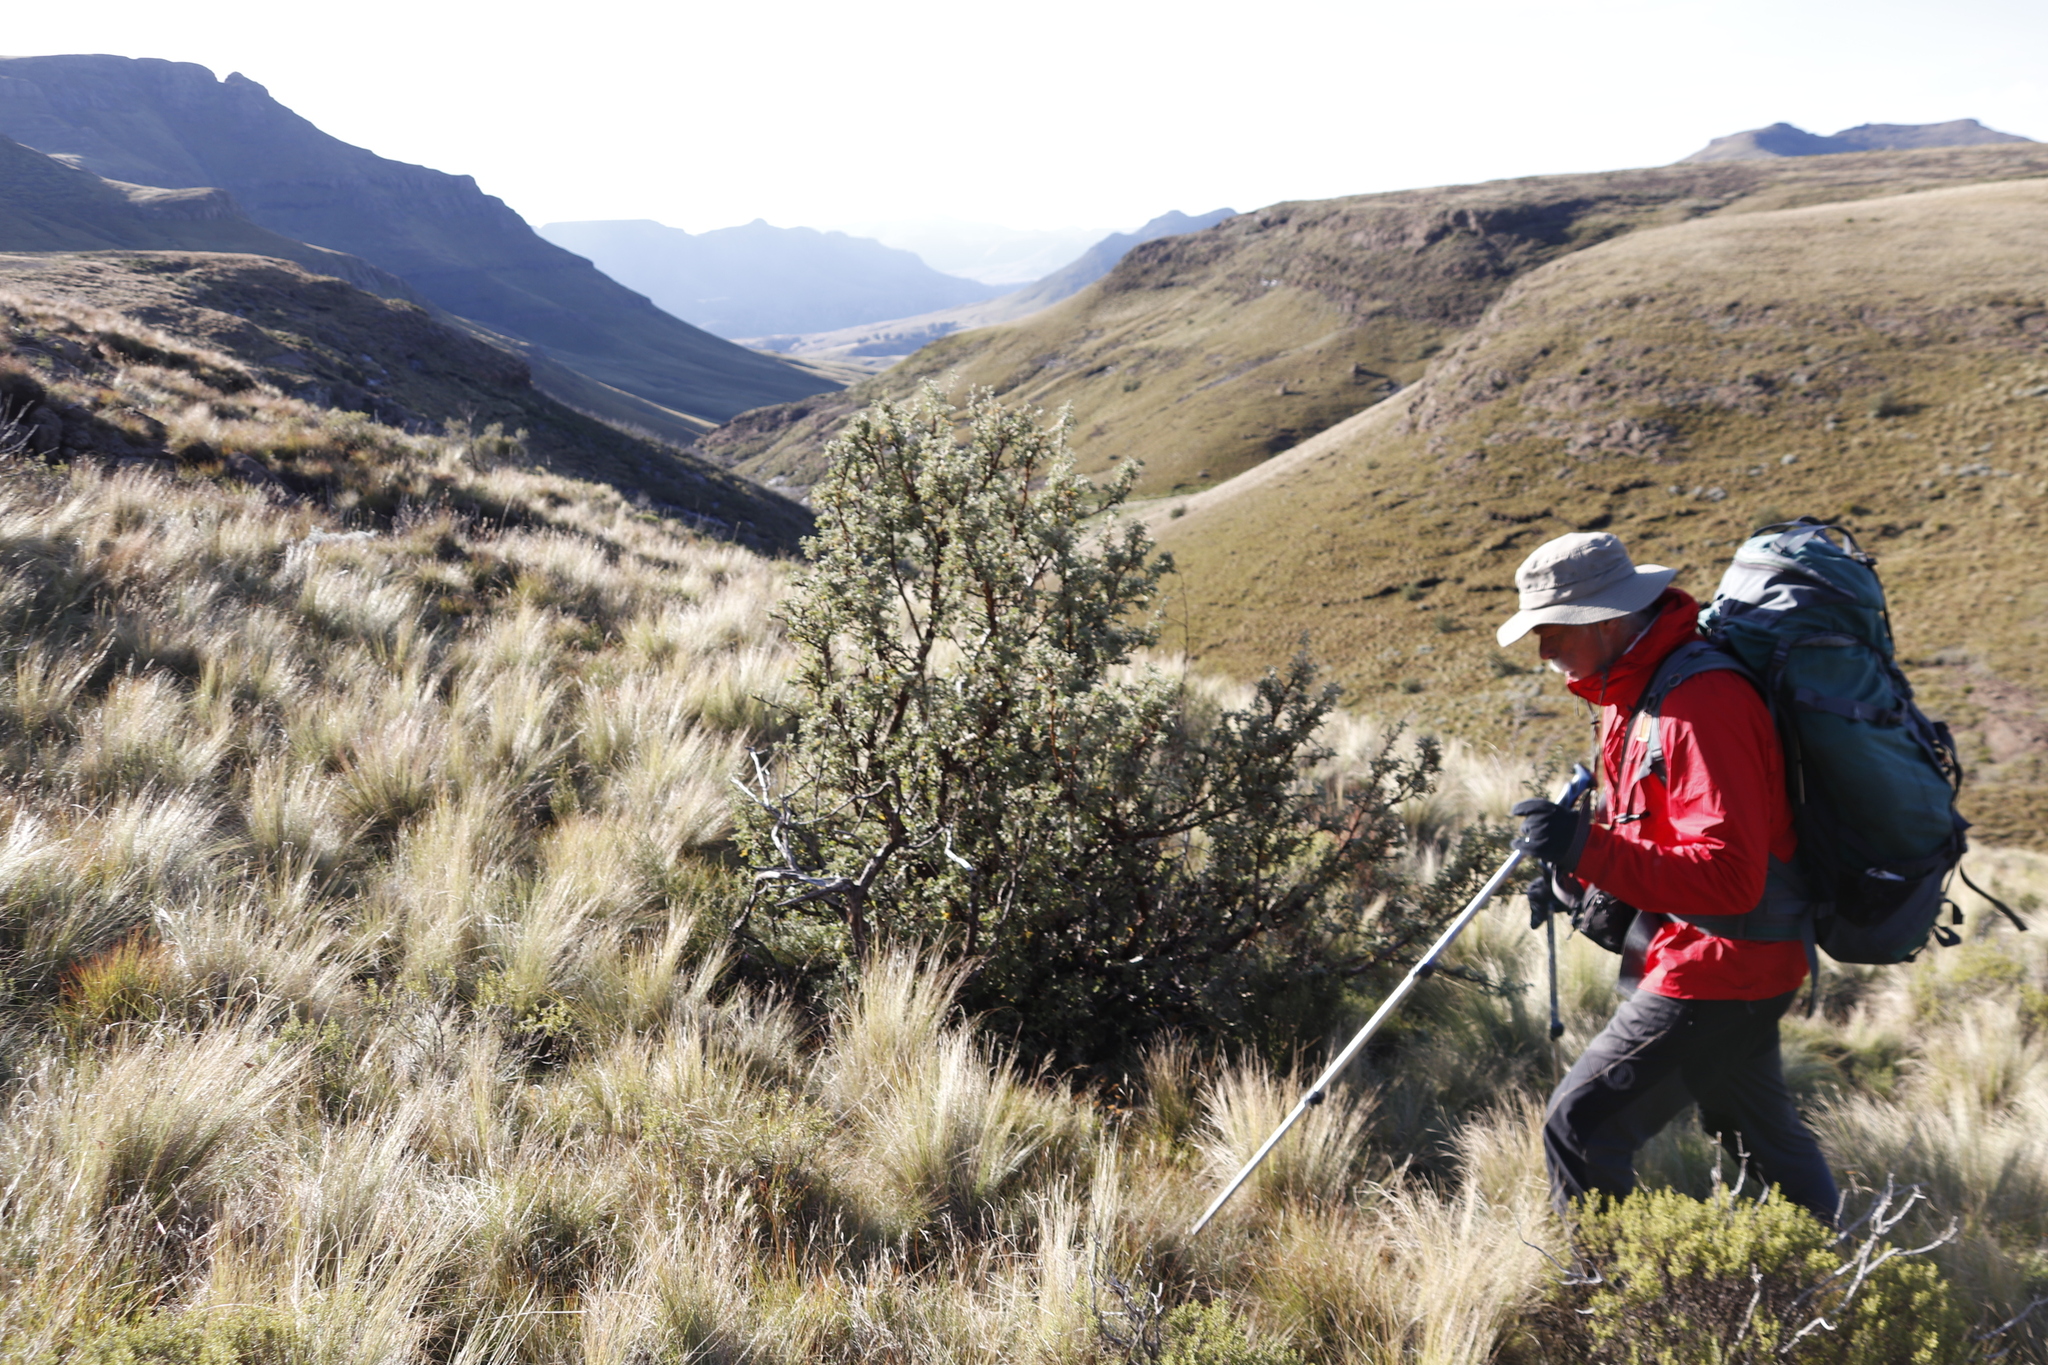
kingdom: Plantae
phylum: Tracheophyta
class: Magnoliopsida
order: Rosales
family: Rosaceae
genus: Leucosidea
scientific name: Leucosidea sericea
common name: Oldwood
